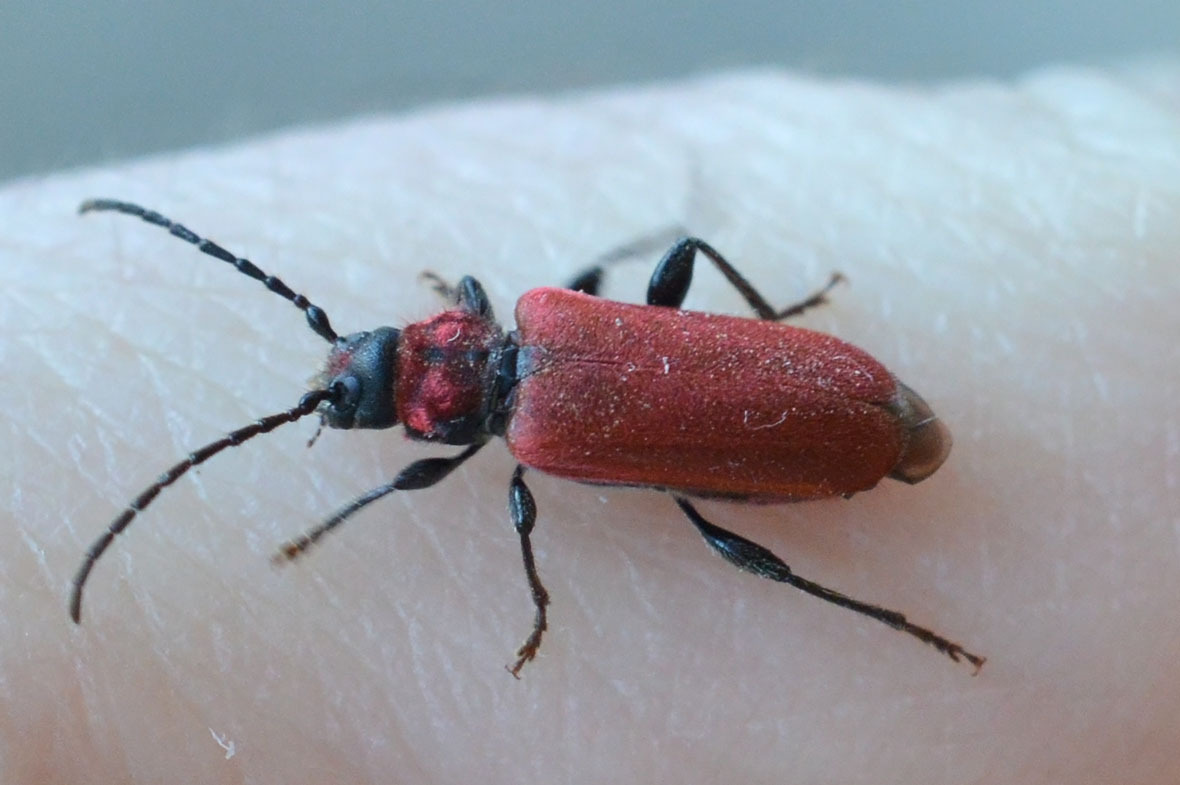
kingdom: Animalia
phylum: Arthropoda
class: Insecta
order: Coleoptera
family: Cerambycidae
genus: Pyrrhidium
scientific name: Pyrrhidium sanguineum
